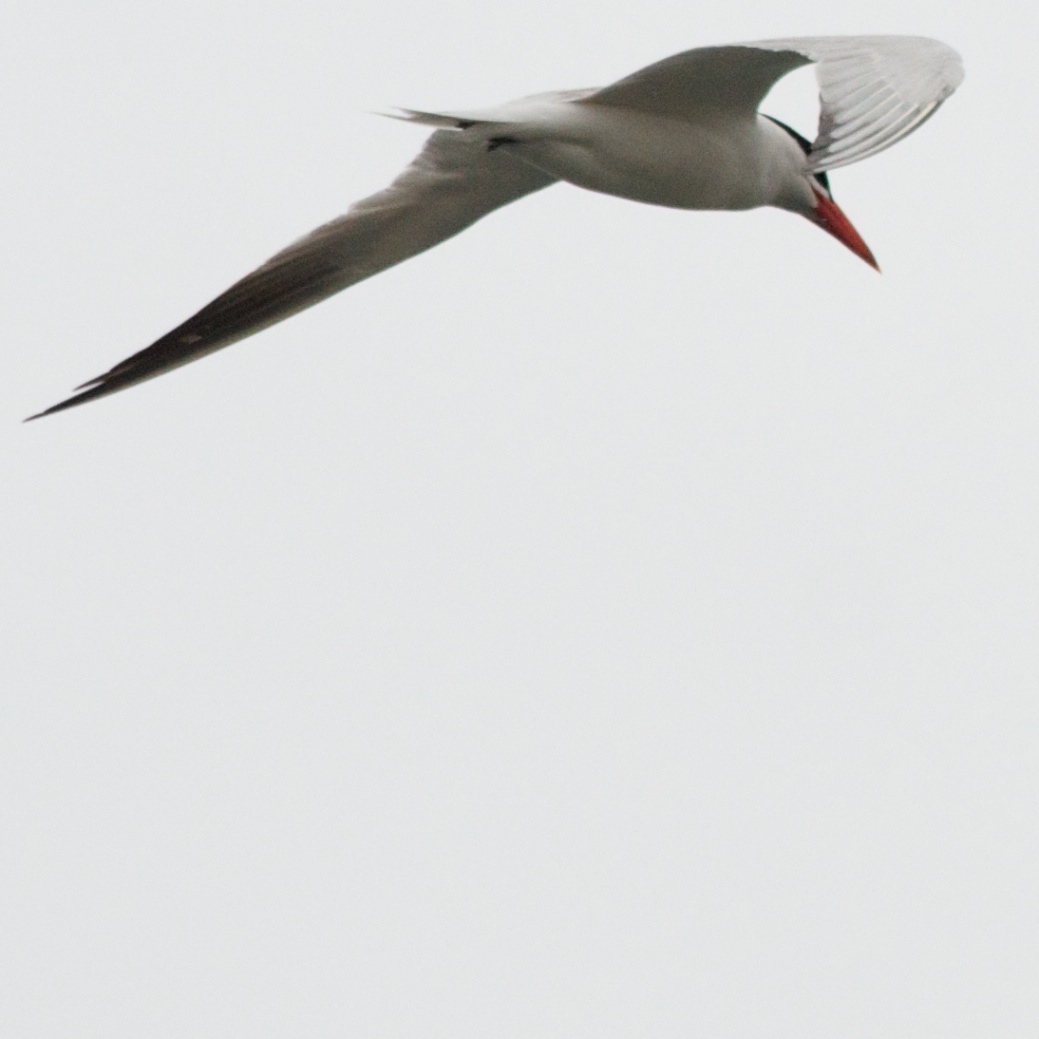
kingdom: Animalia
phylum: Chordata
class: Aves
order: Charadriiformes
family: Laridae
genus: Hydroprogne
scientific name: Hydroprogne caspia
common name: Caspian tern
